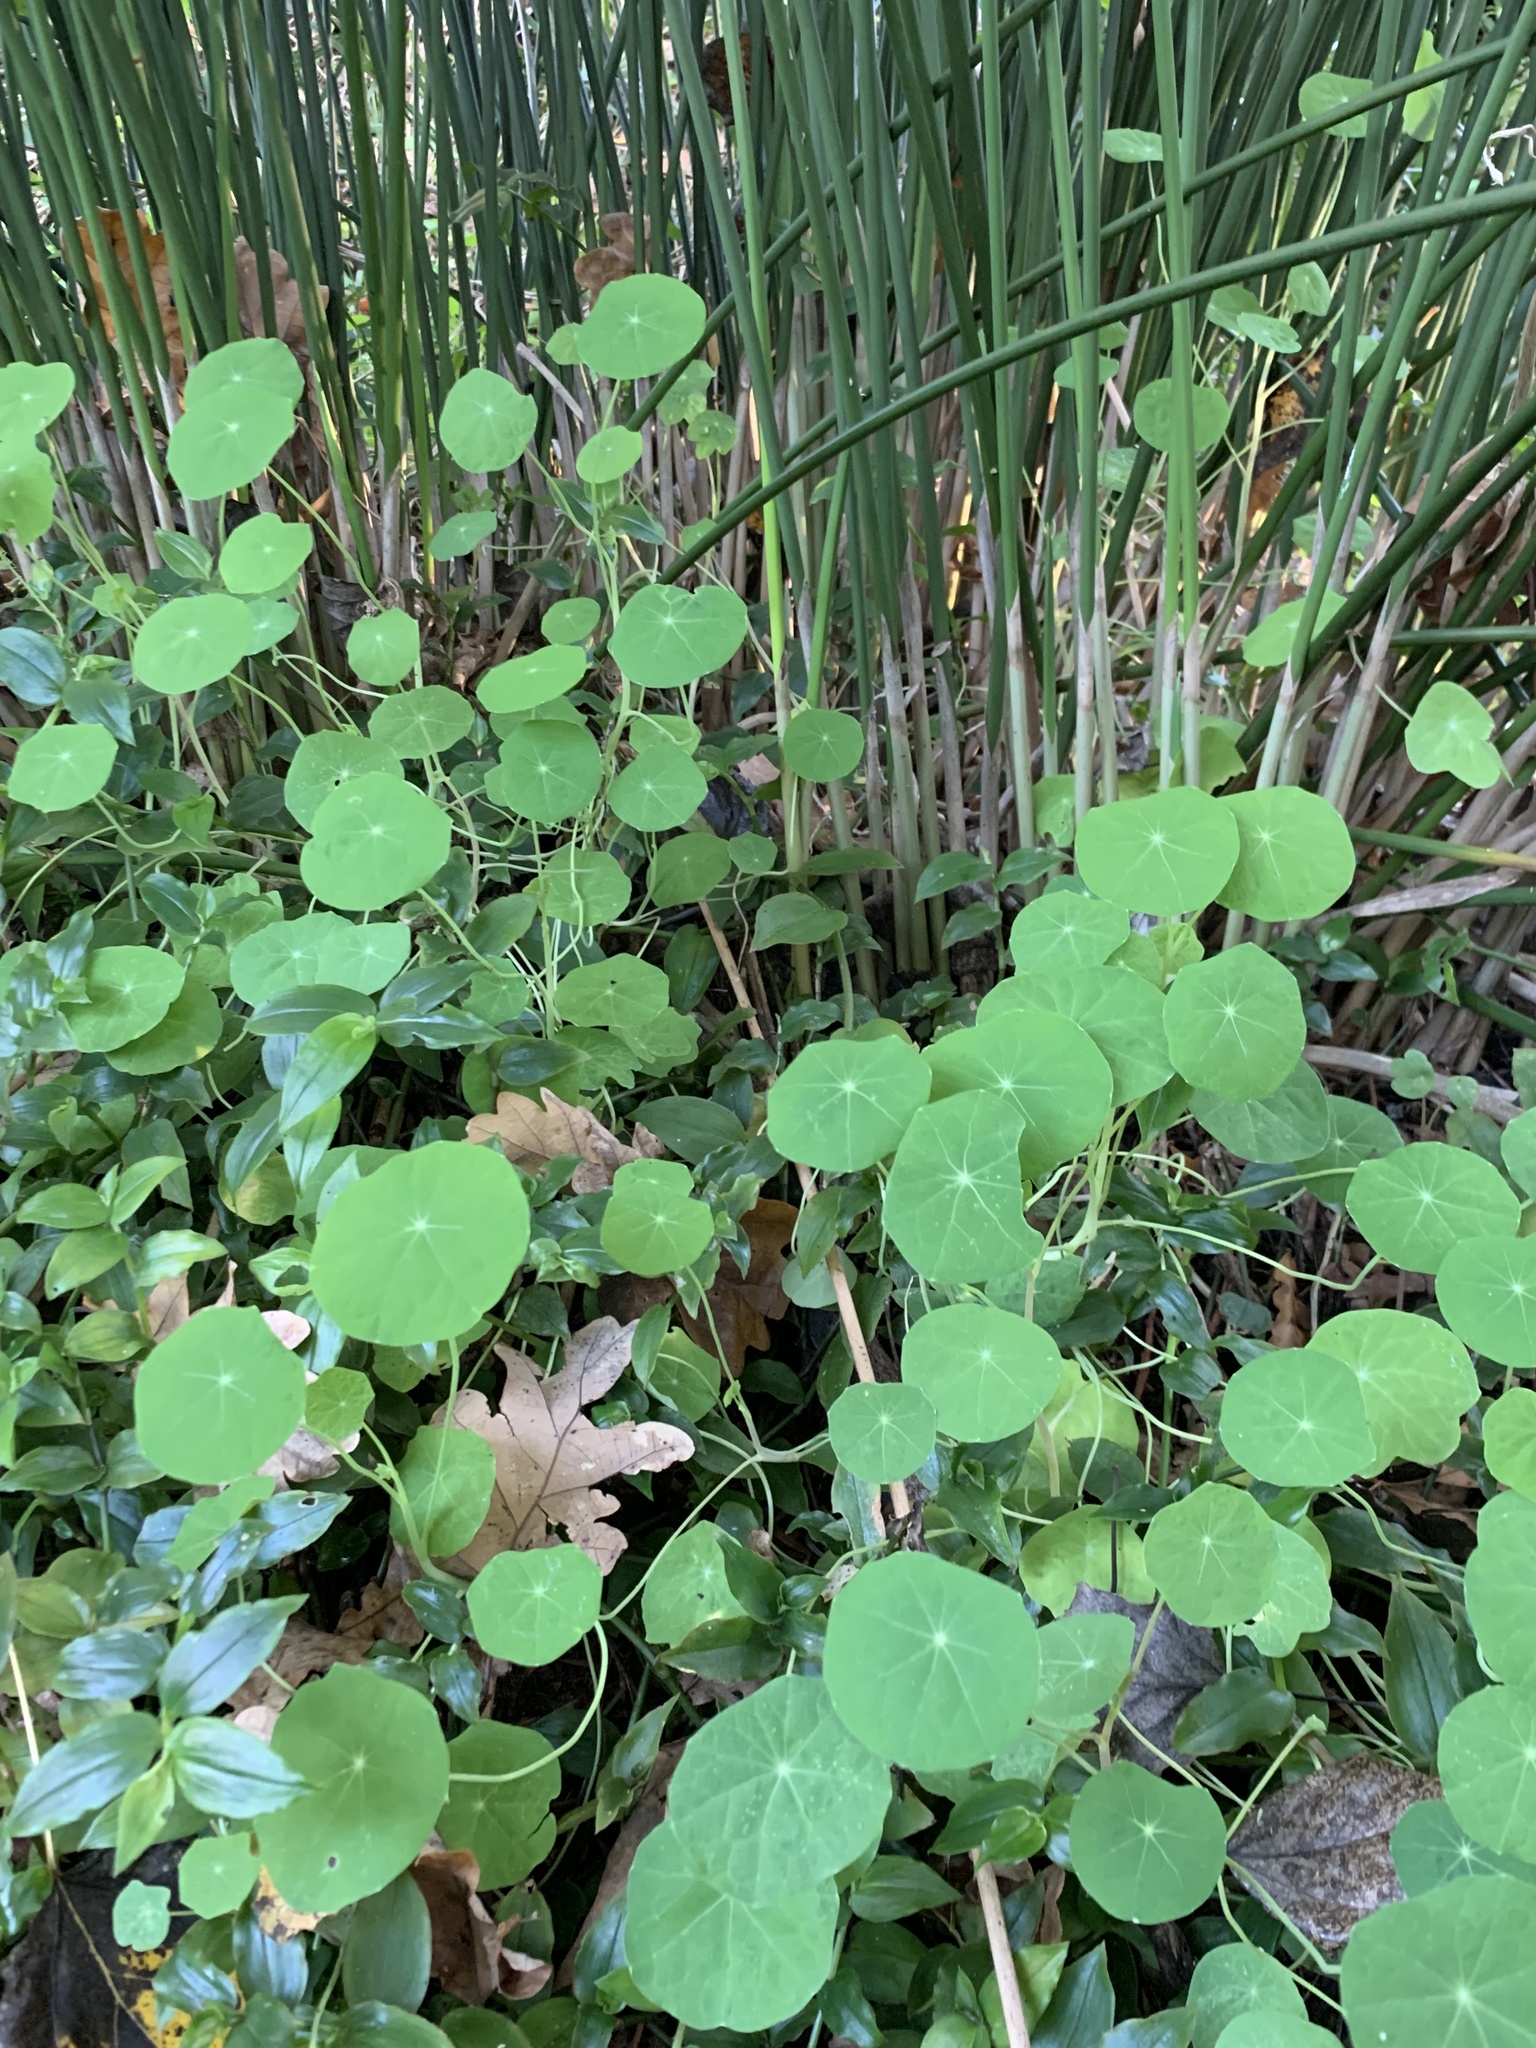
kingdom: Plantae
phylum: Tracheophyta
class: Magnoliopsida
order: Brassicales
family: Tropaeolaceae
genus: Tropaeolum
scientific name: Tropaeolum majus
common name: Nasturtium
